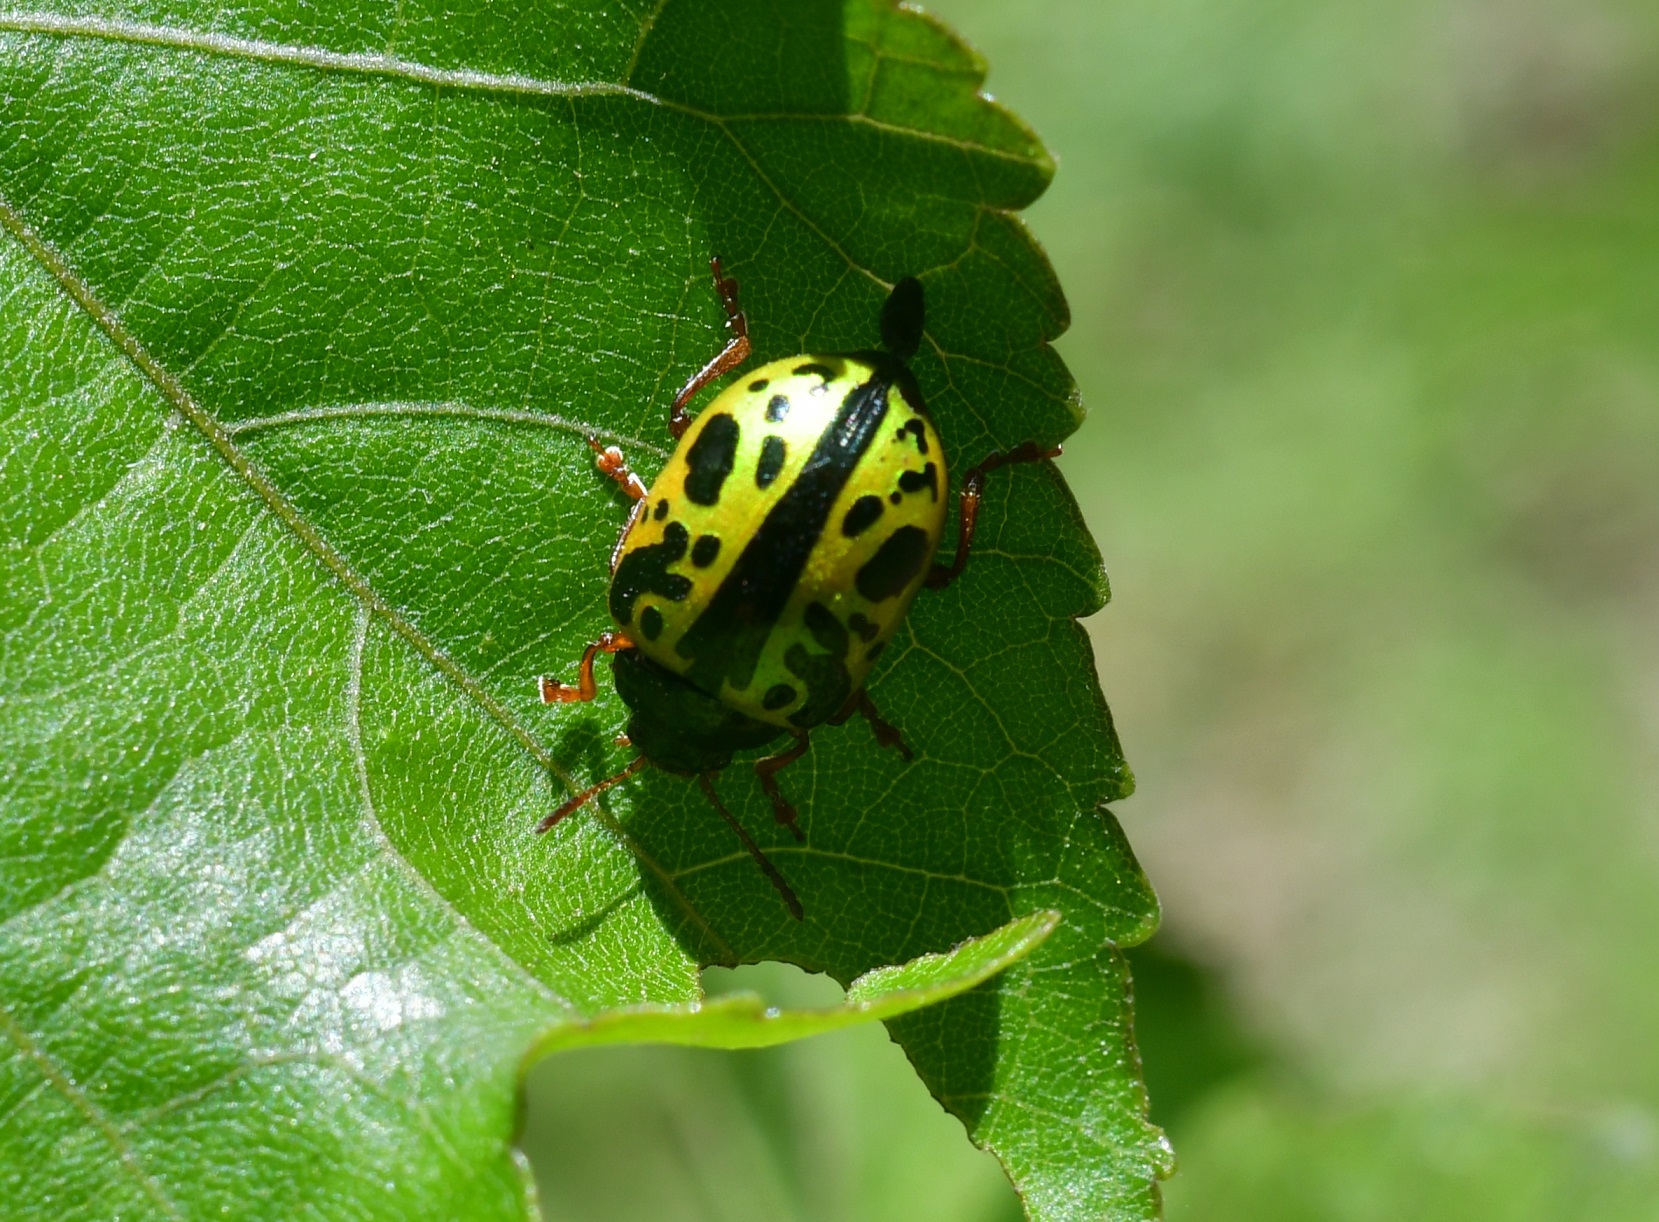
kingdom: Animalia
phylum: Arthropoda
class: Insecta
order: Coleoptera
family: Chrysomelidae
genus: Calligrapha
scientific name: Calligrapha fulvipes
